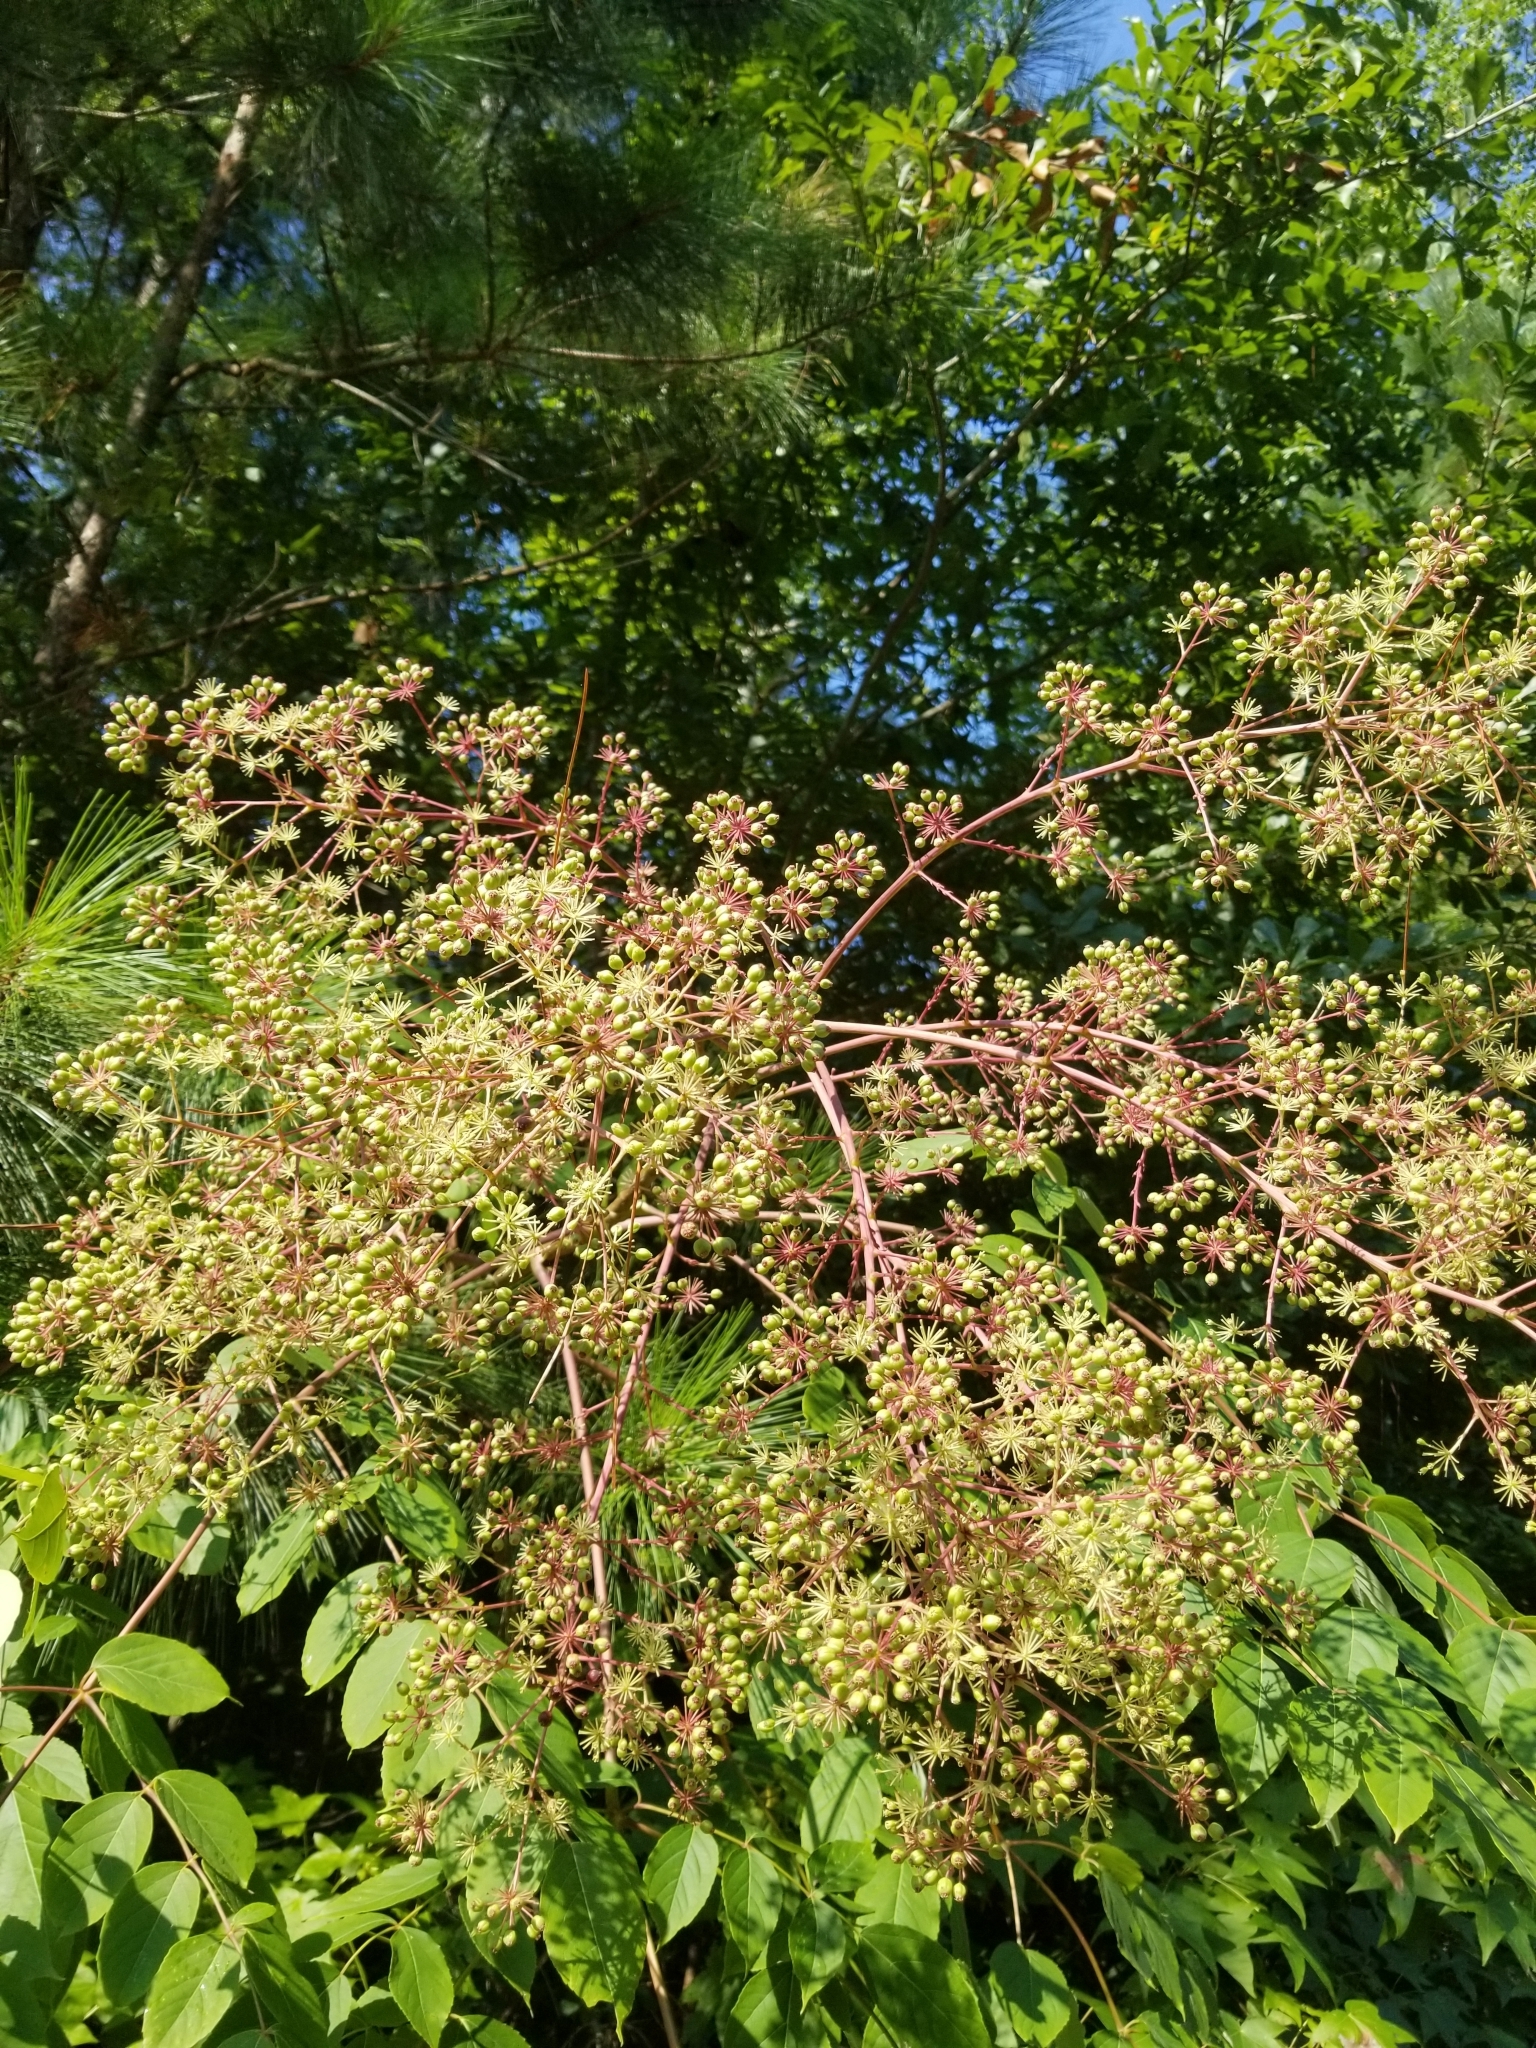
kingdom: Plantae
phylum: Tracheophyta
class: Magnoliopsida
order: Apiales
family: Araliaceae
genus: Aralia
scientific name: Aralia spinosa
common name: Hercules'-club
